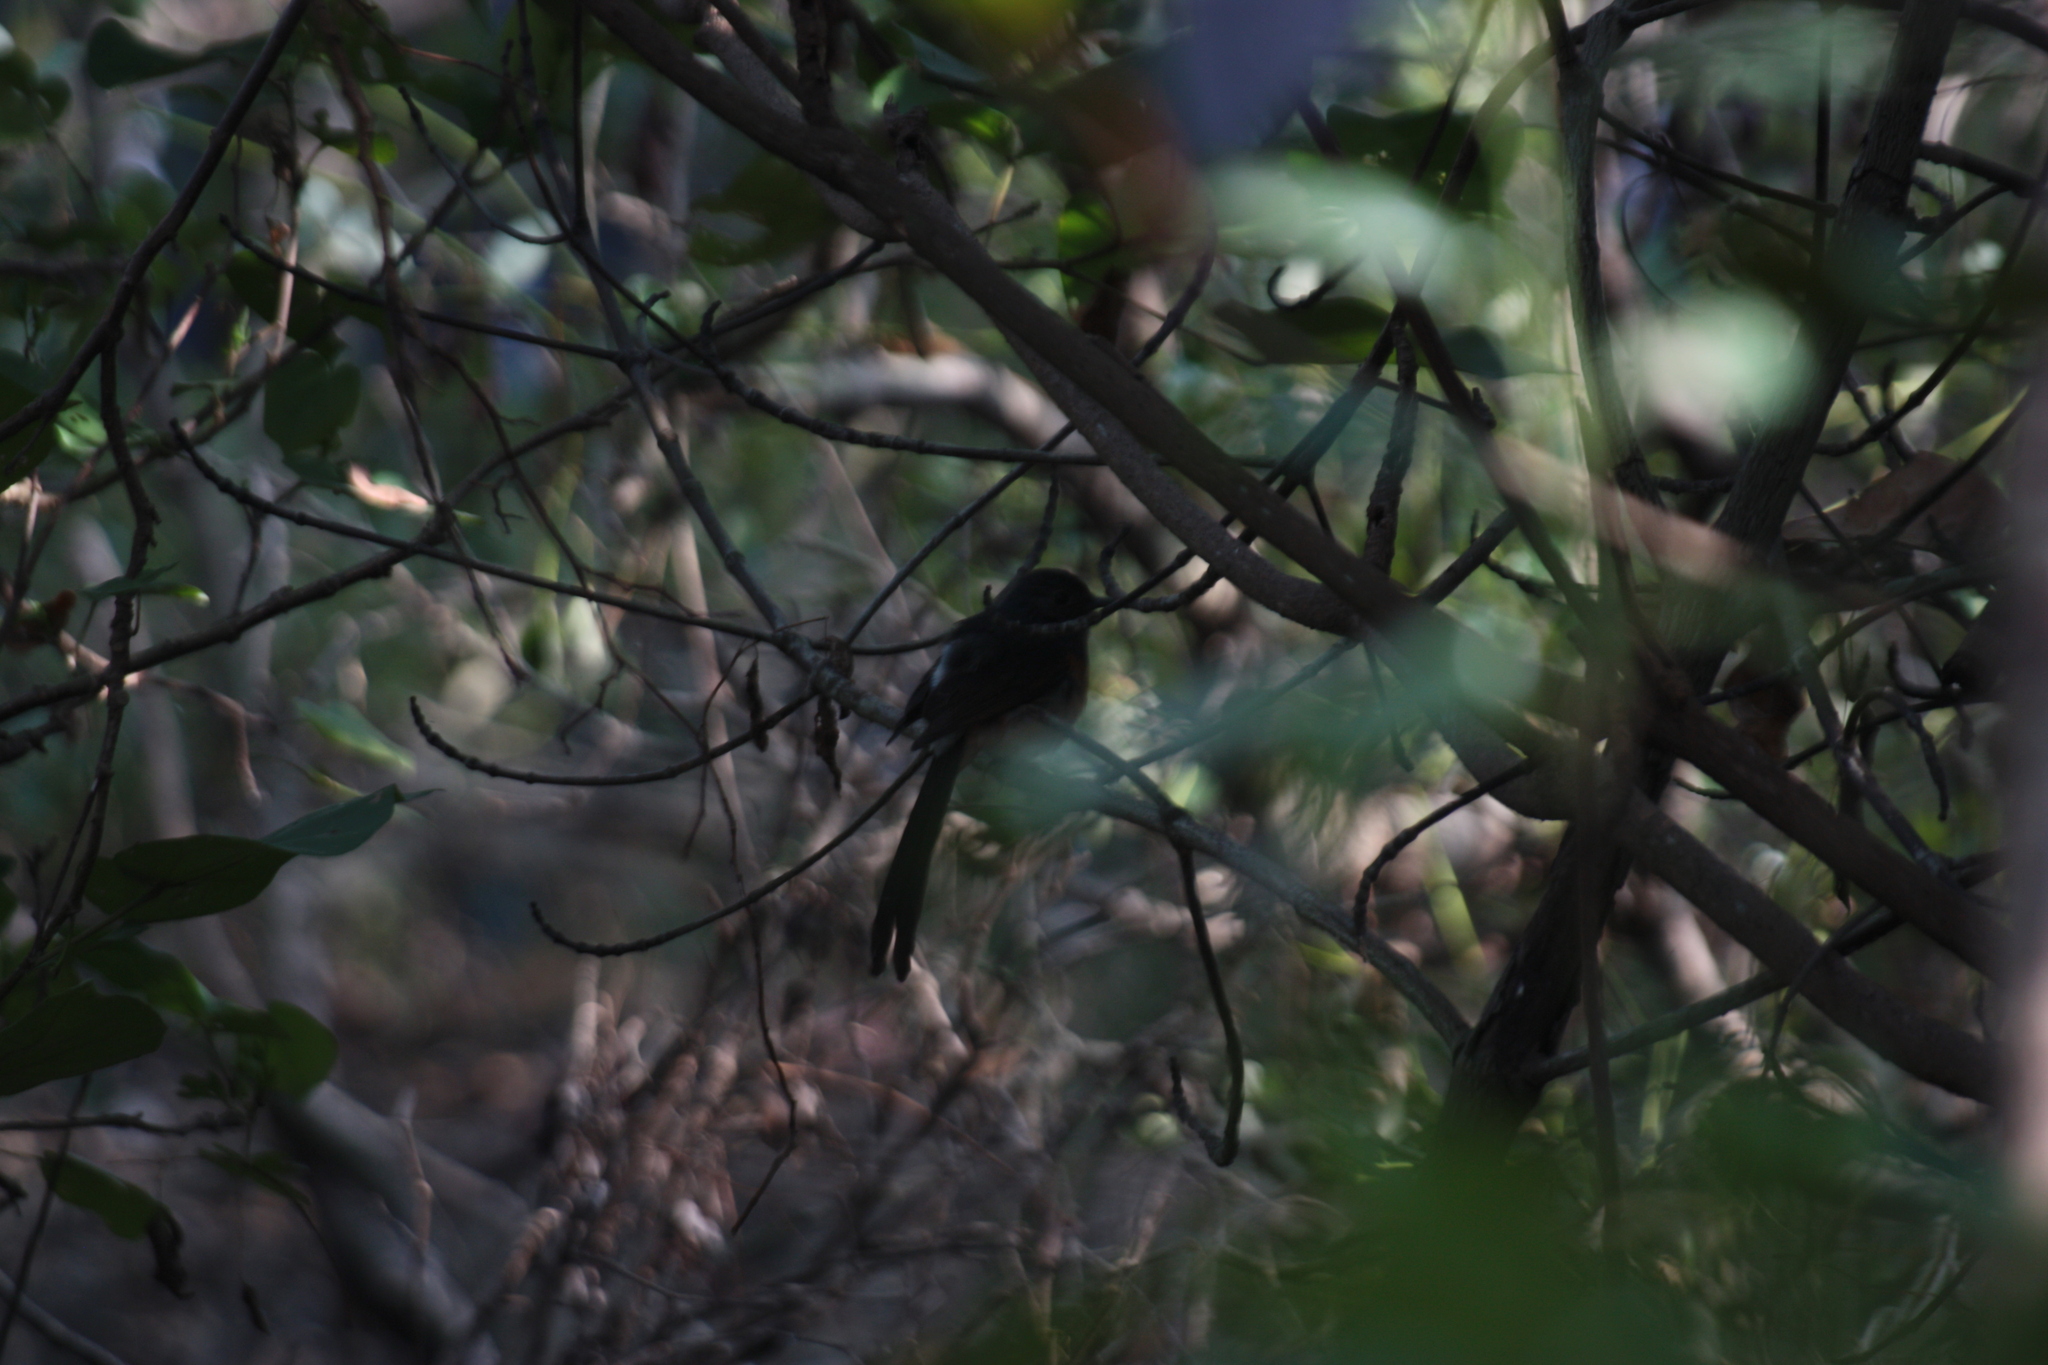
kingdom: Animalia
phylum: Chordata
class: Aves
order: Passeriformes
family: Muscicapidae
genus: Copsychus
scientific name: Copsychus malabaricus
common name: White-rumped shama
